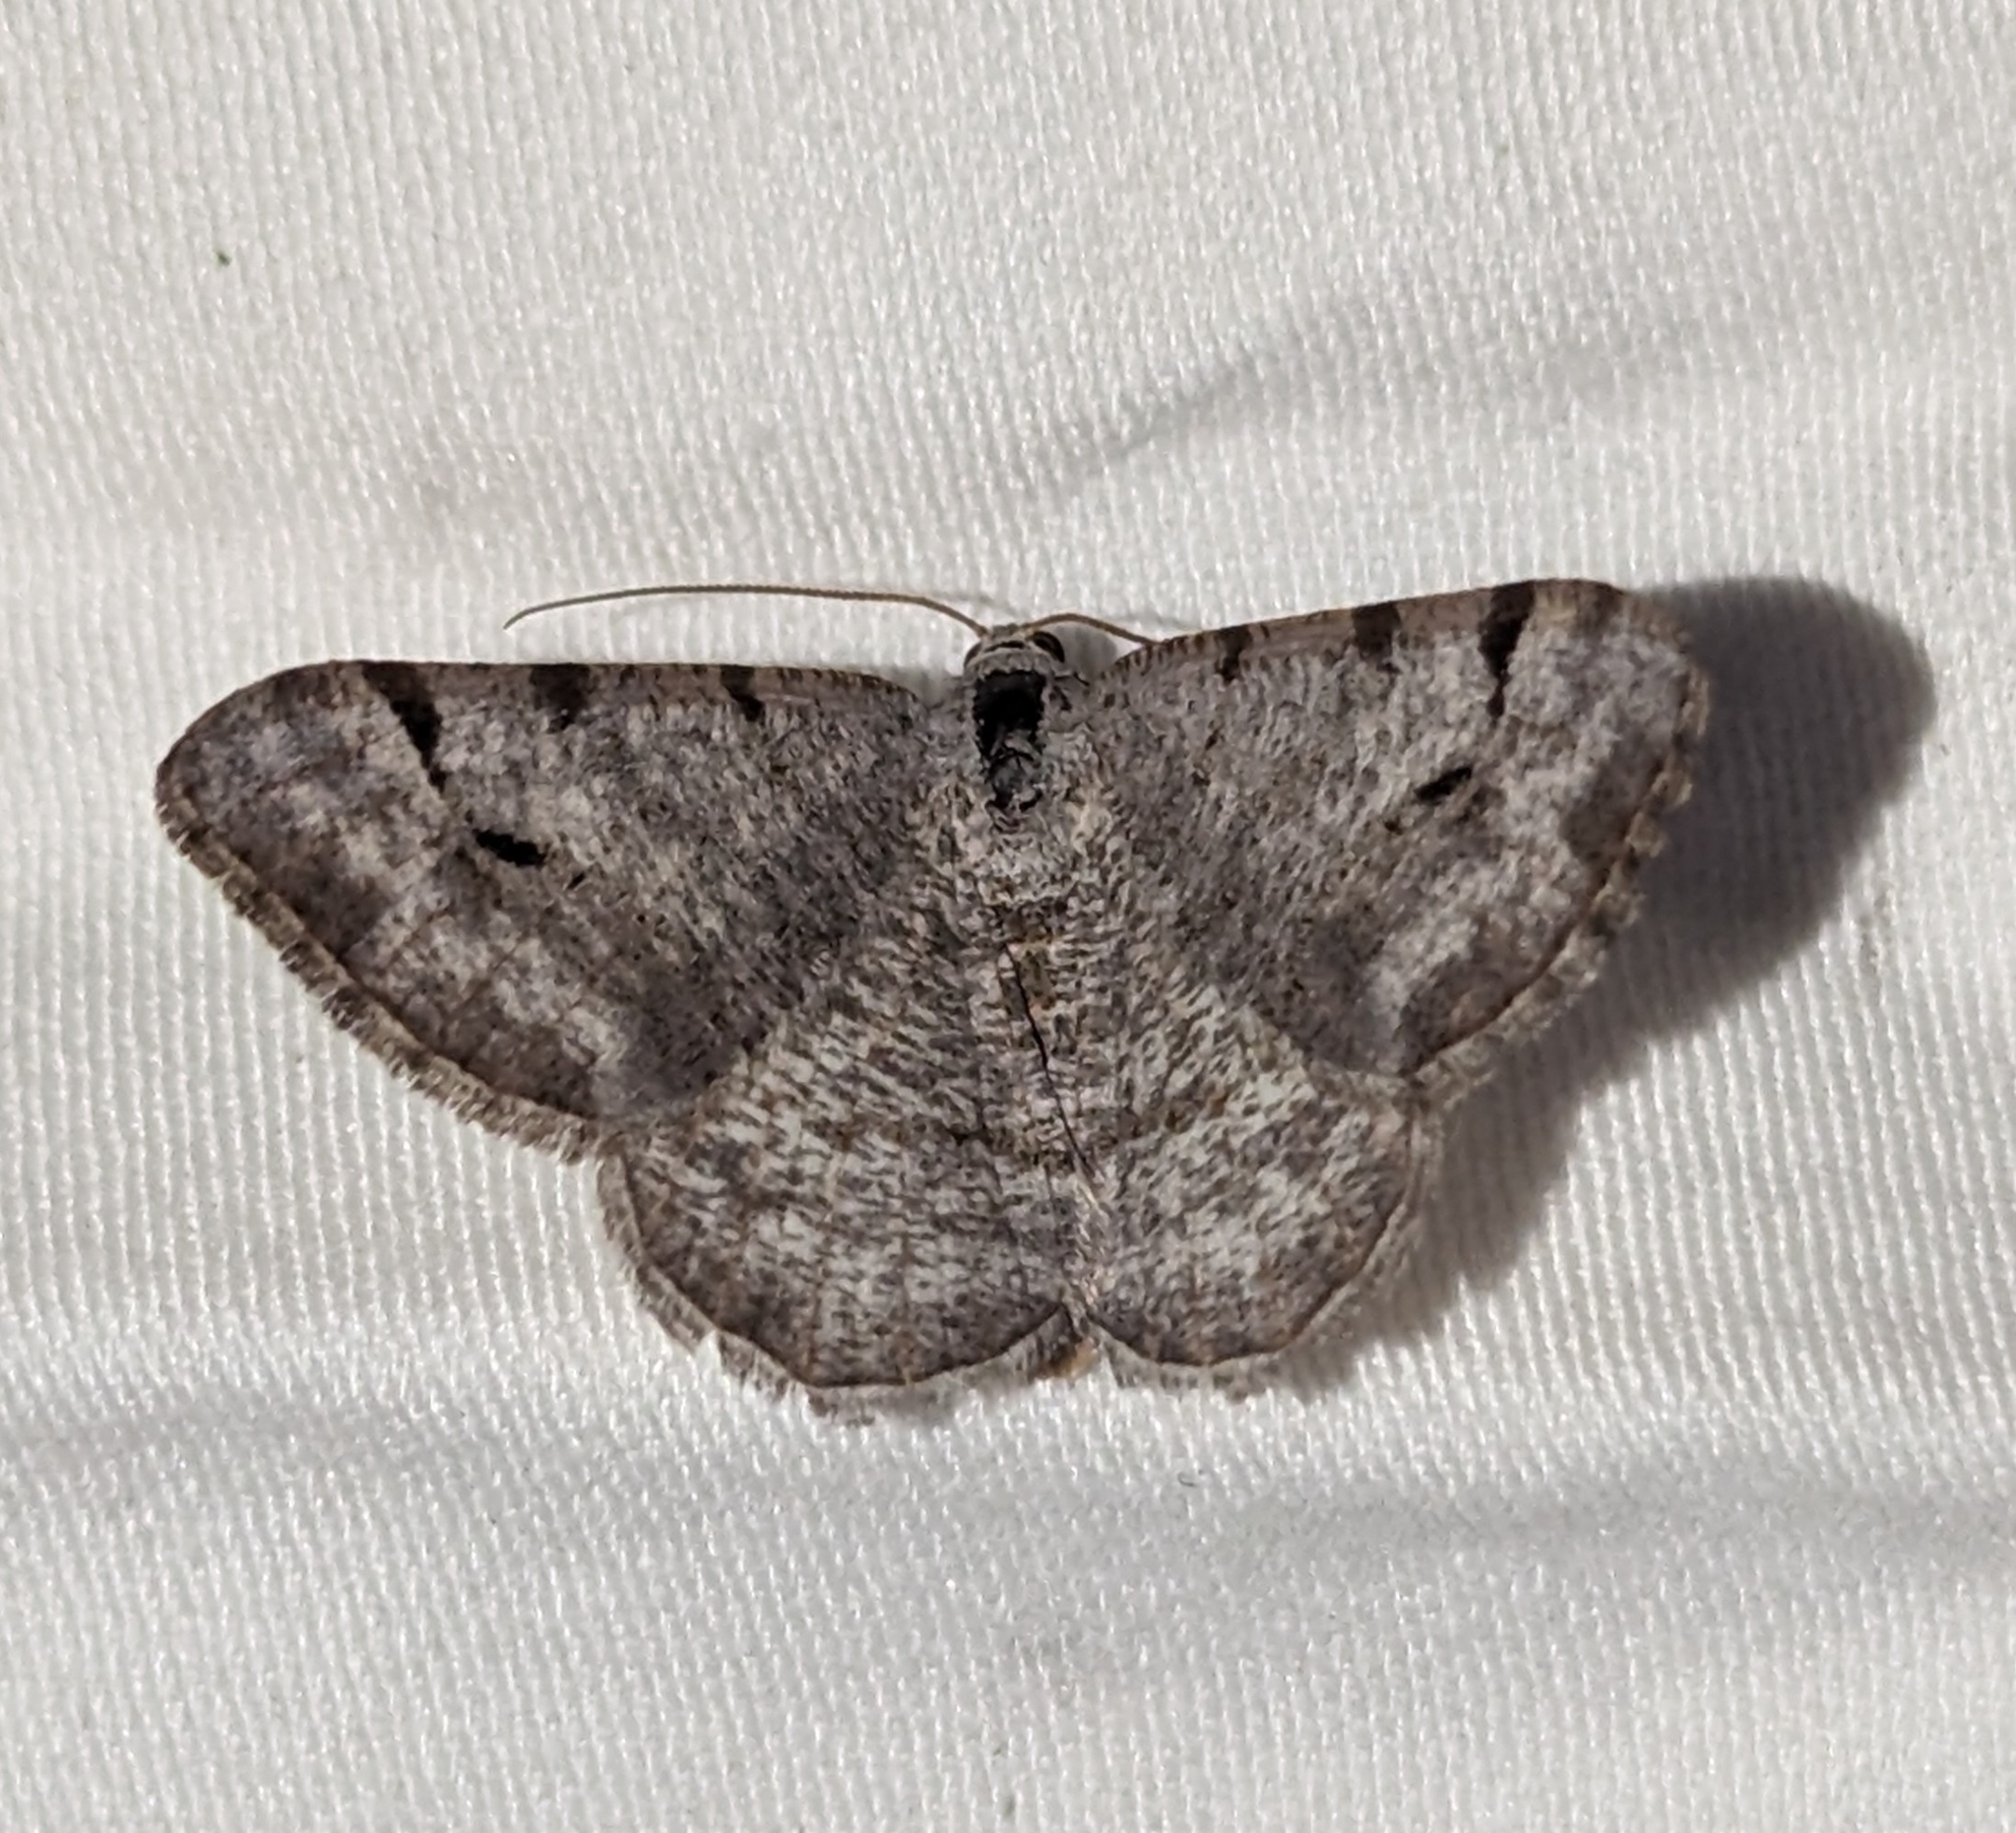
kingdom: Animalia
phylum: Arthropoda
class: Insecta
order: Lepidoptera
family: Geometridae
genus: Digrammia
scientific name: Digrammia denticulata
